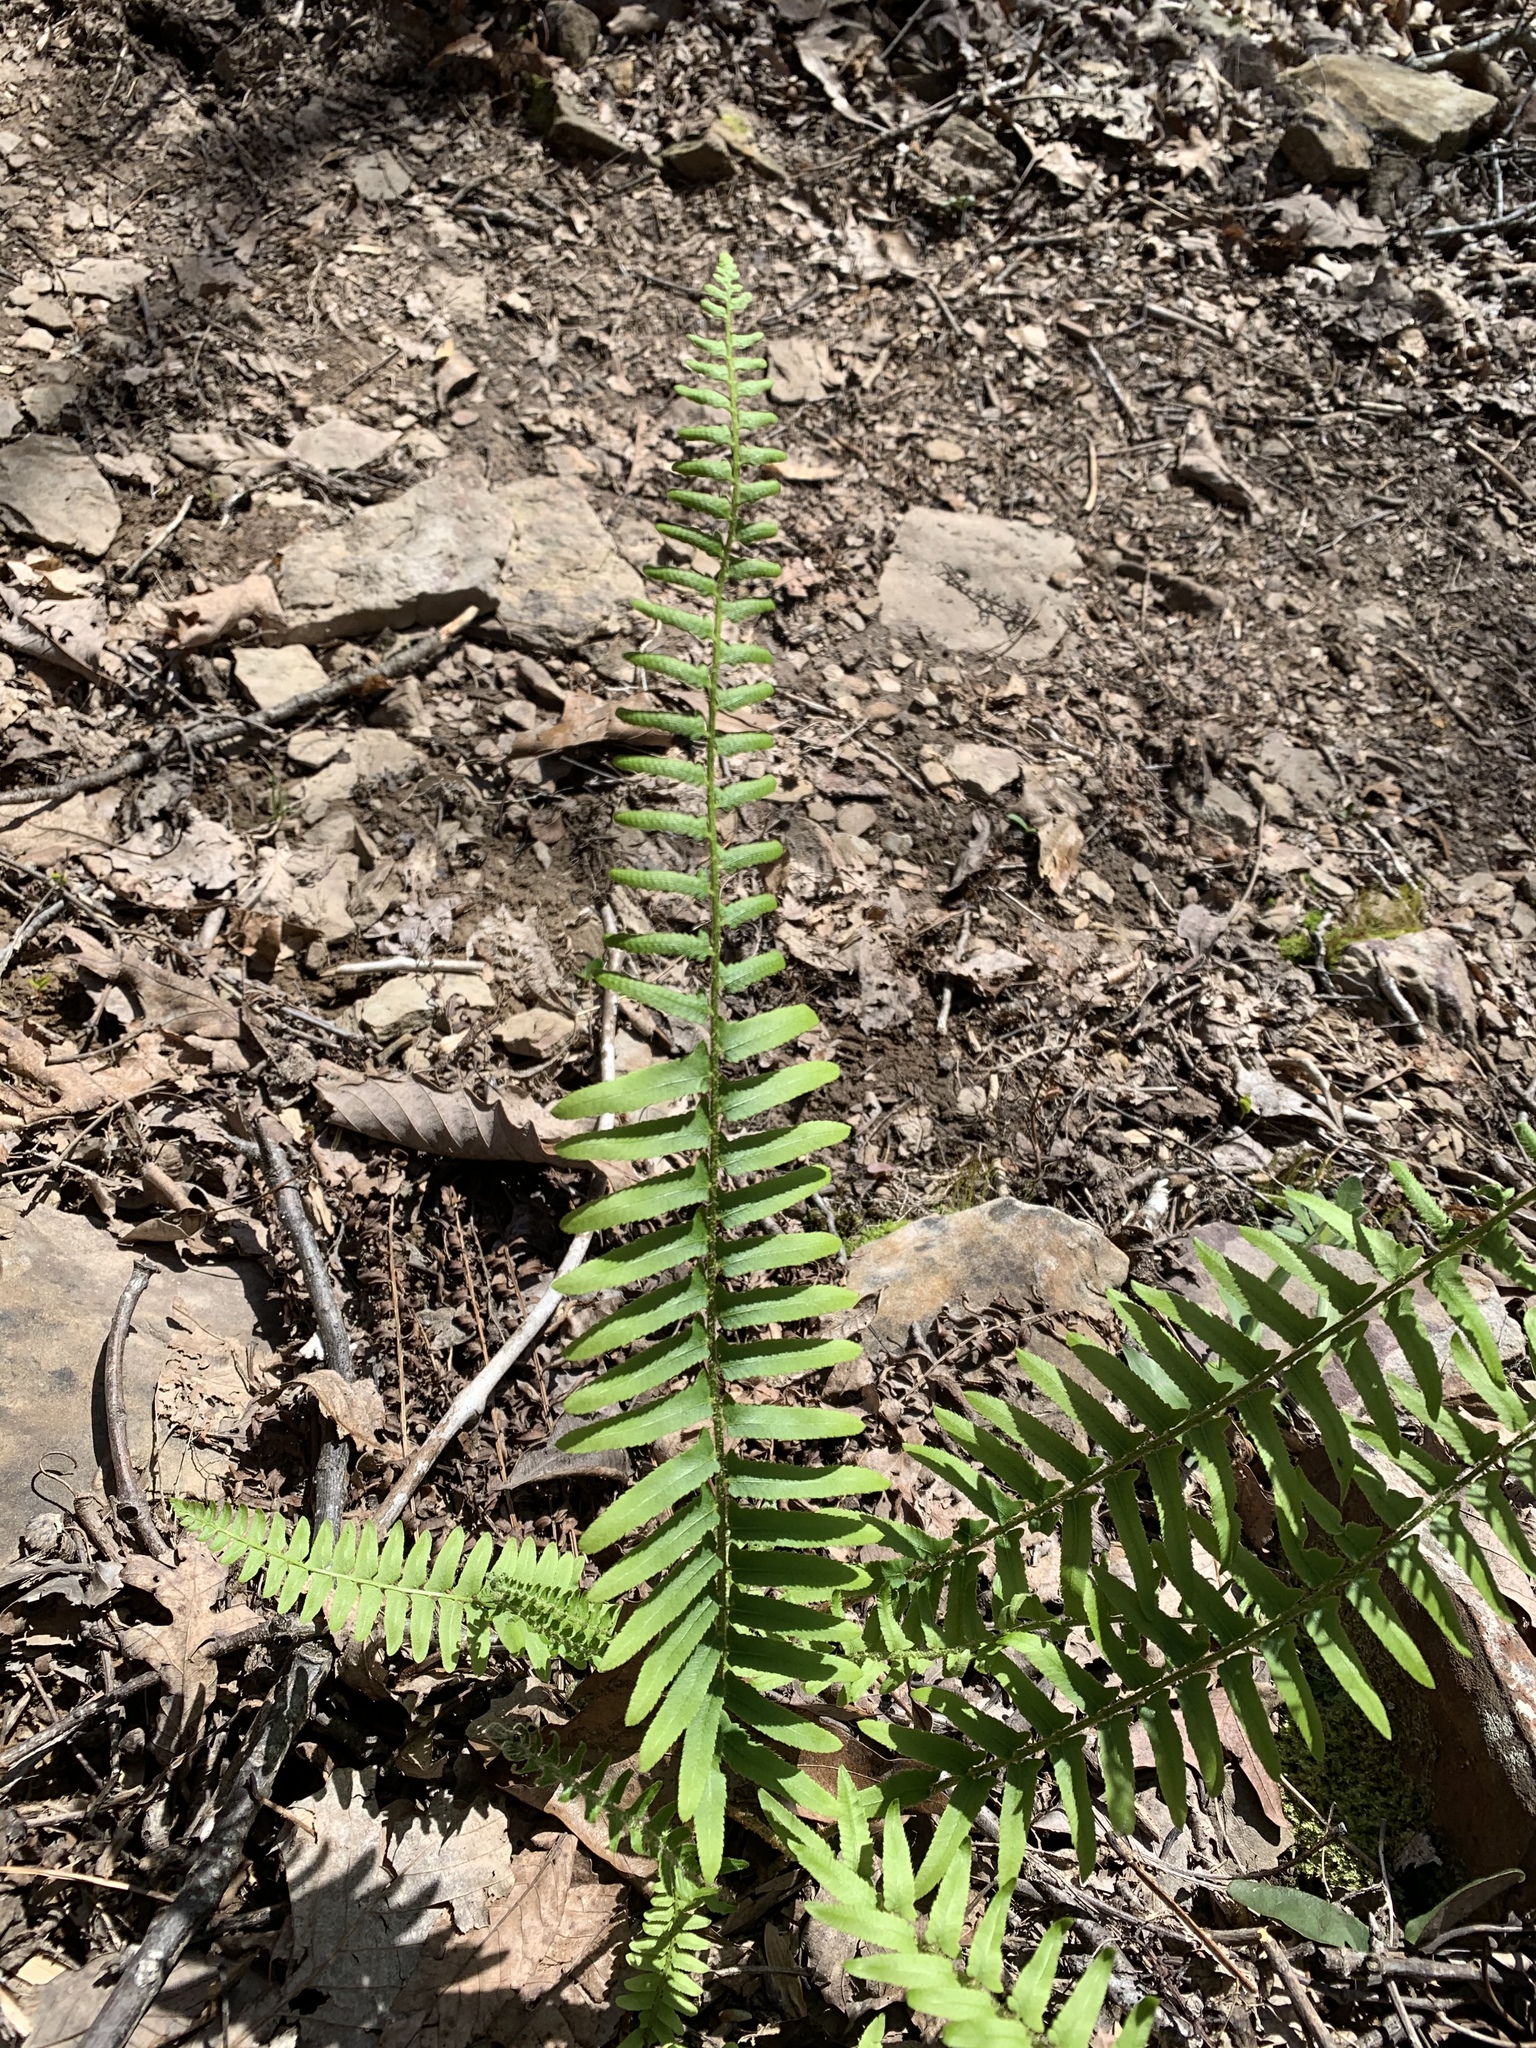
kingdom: Plantae
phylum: Tracheophyta
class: Polypodiopsida
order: Polypodiales
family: Dryopteridaceae
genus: Polystichum
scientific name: Polystichum acrostichoides
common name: Christmas fern
